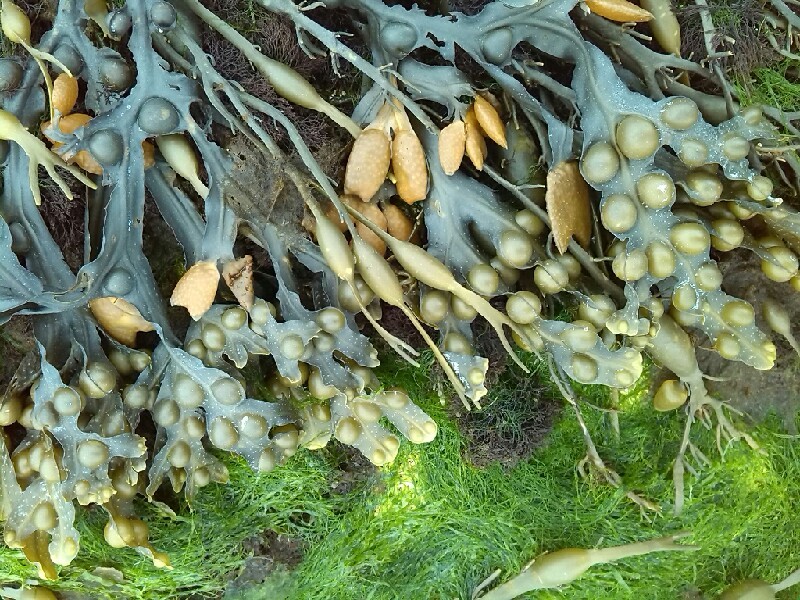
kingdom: Chromista
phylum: Ochrophyta
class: Phaeophyceae
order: Fucales
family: Fucaceae
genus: Fucus
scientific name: Fucus vesiculosus
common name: Bladder wrack
